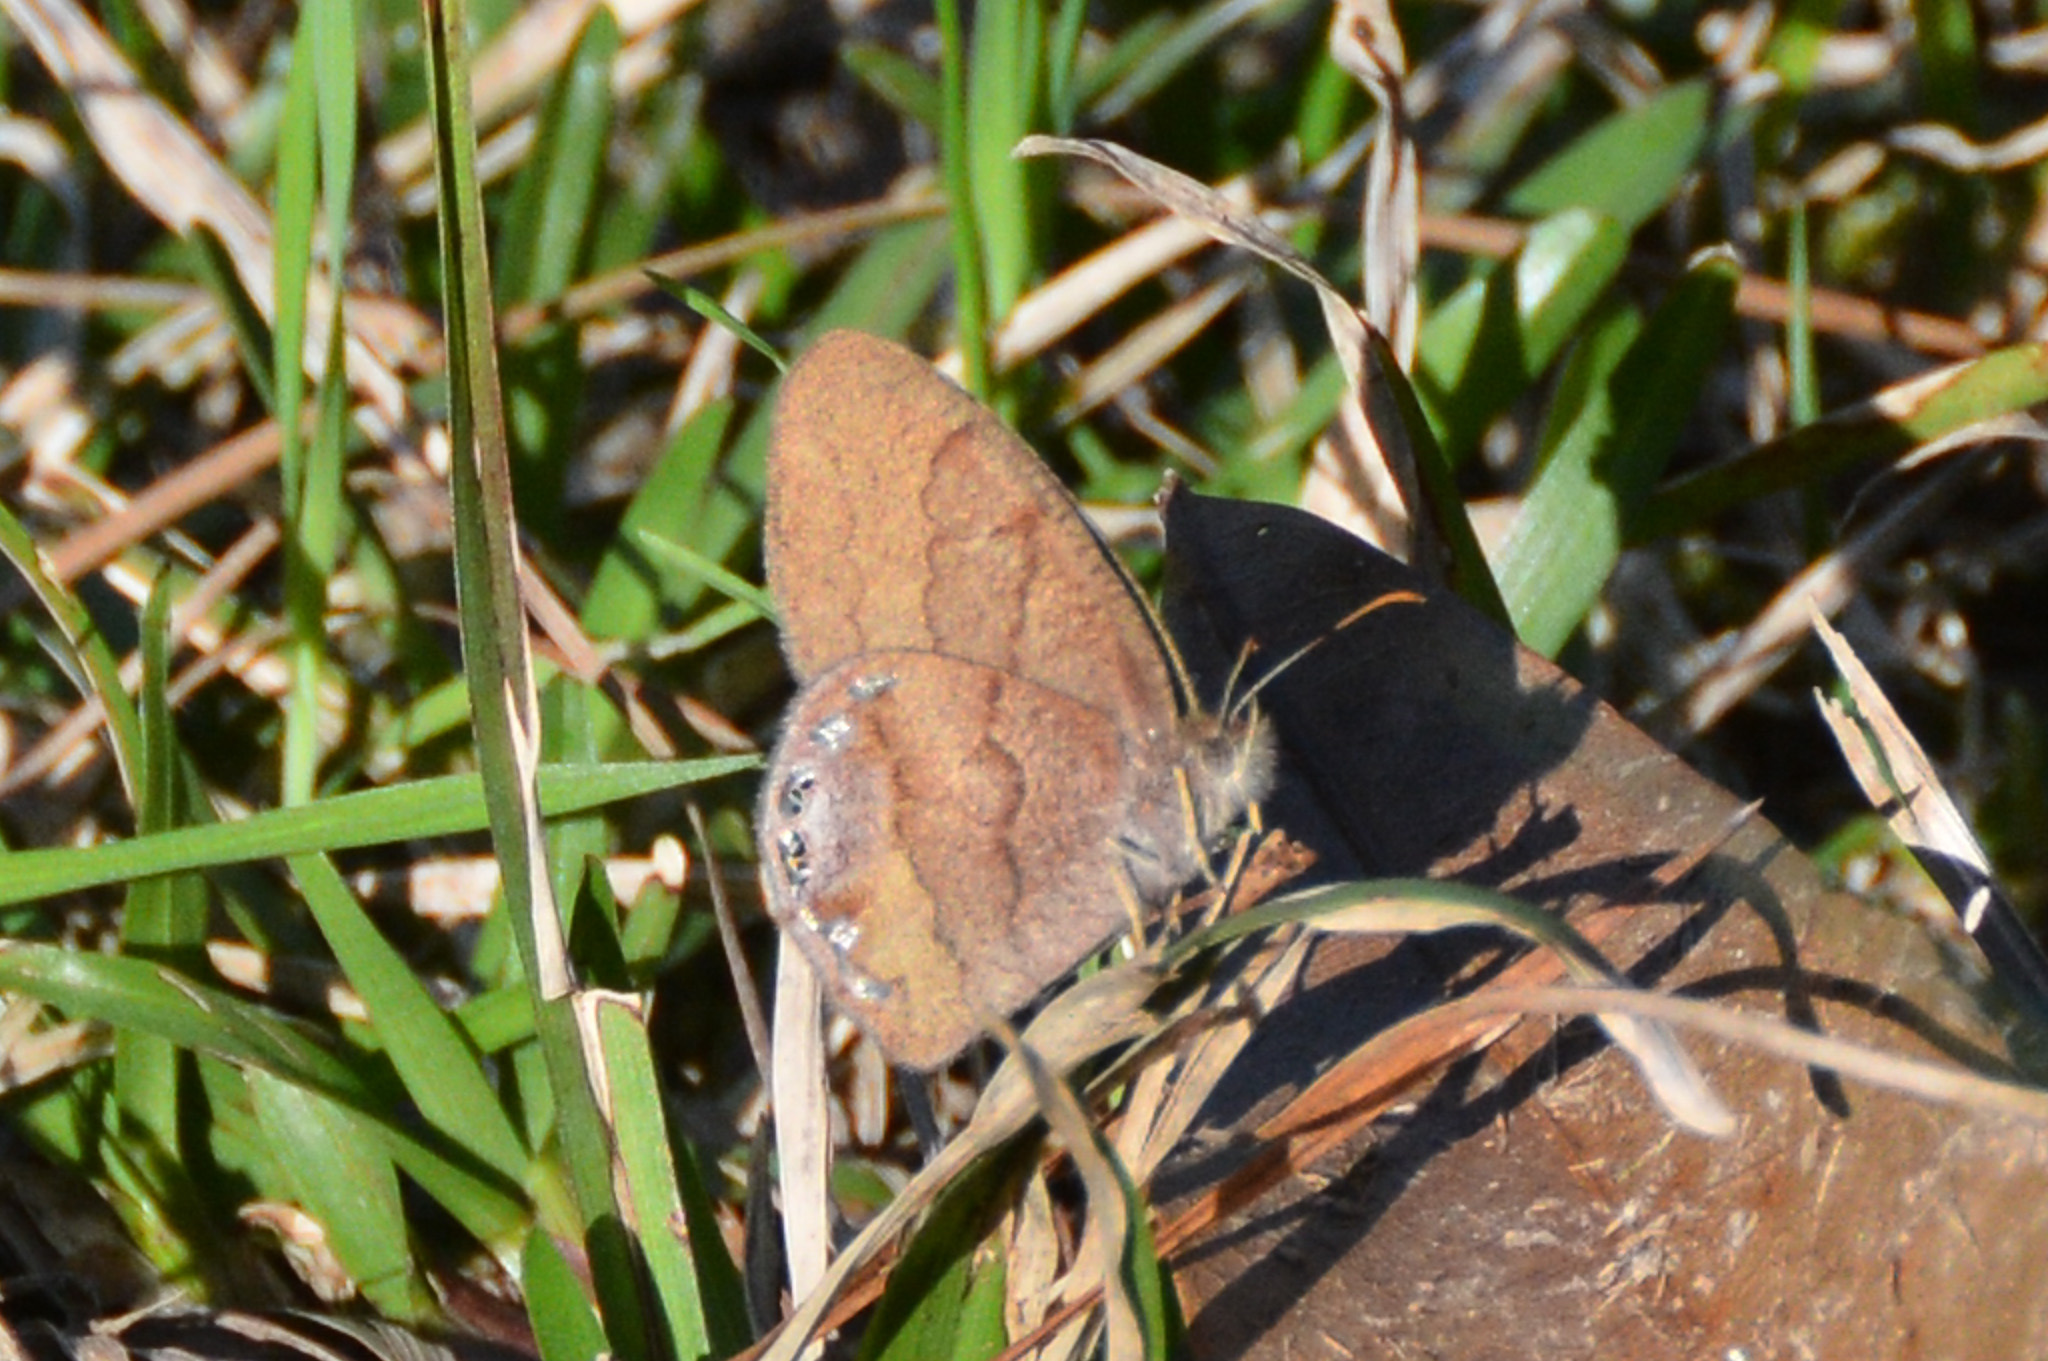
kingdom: Animalia
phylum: Arthropoda
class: Insecta
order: Lepidoptera
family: Nymphalidae
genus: Euptychia
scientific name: Euptychia cornelius
